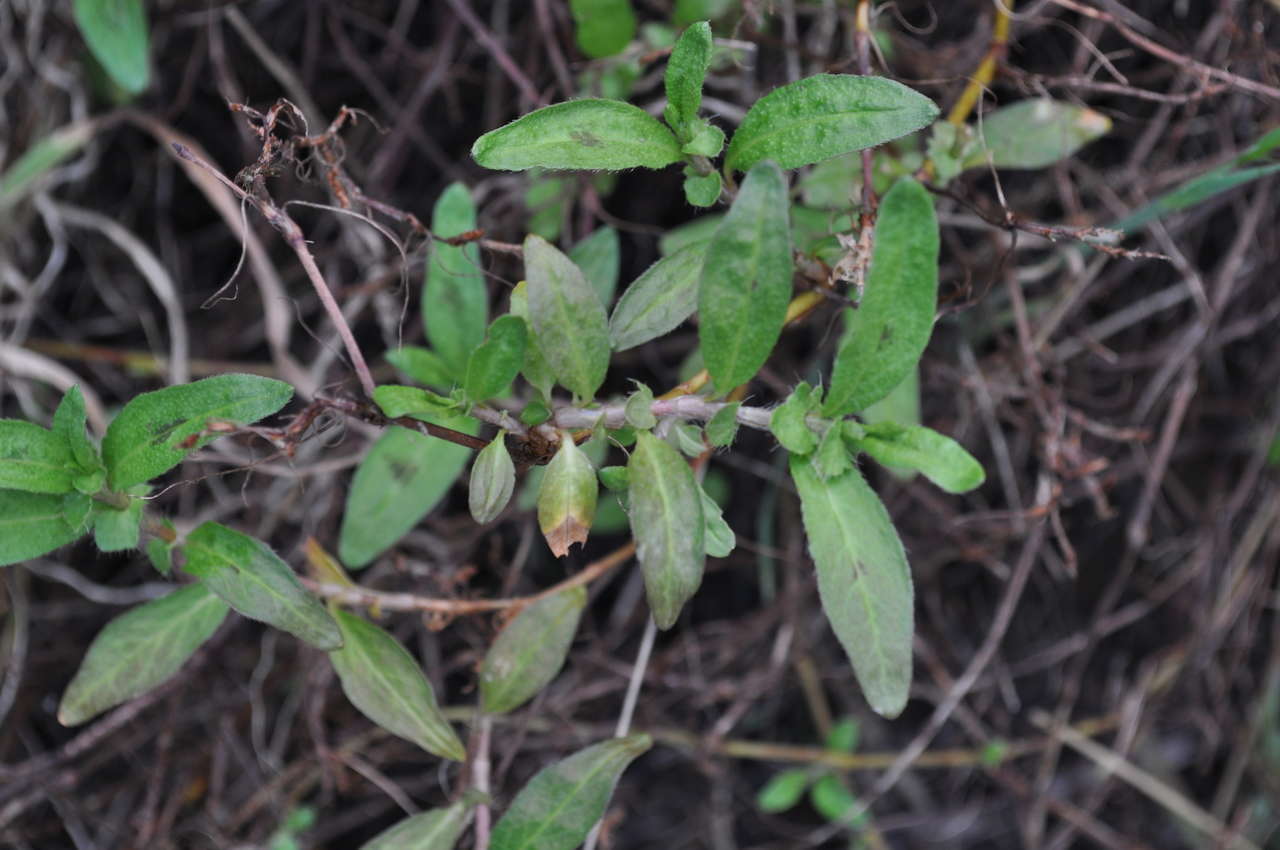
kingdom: Plantae
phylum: Tracheophyta
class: Magnoliopsida
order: Caryophyllales
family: Polygonaceae
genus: Persicaria
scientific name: Persicaria prostrata
